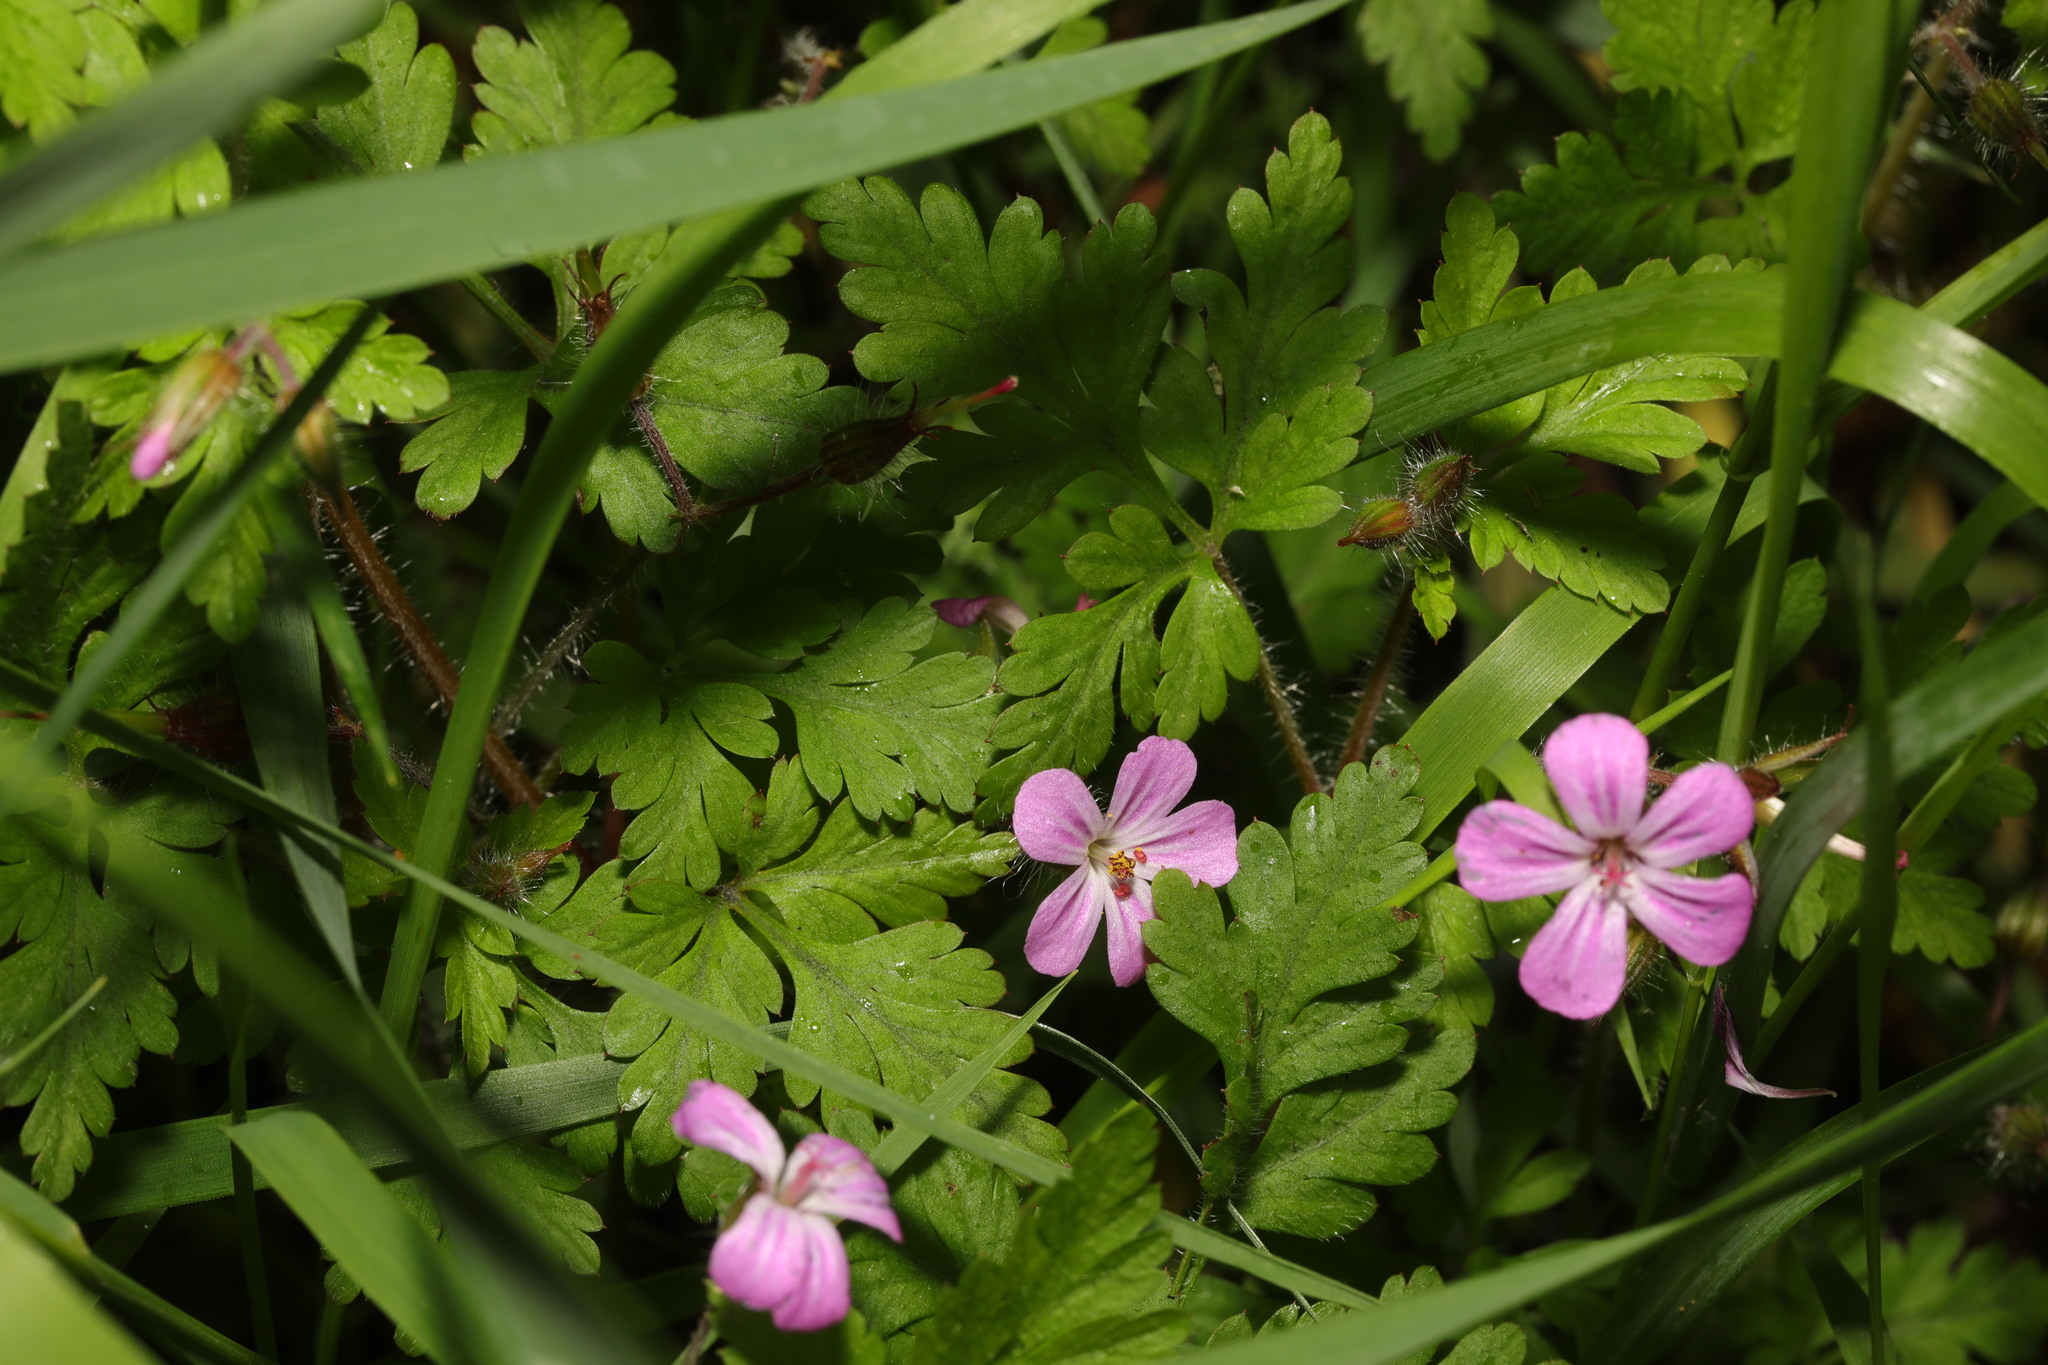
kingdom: Plantae
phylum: Tracheophyta
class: Magnoliopsida
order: Geraniales
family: Geraniaceae
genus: Geranium
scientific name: Geranium robertianum
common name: Herb-robert
